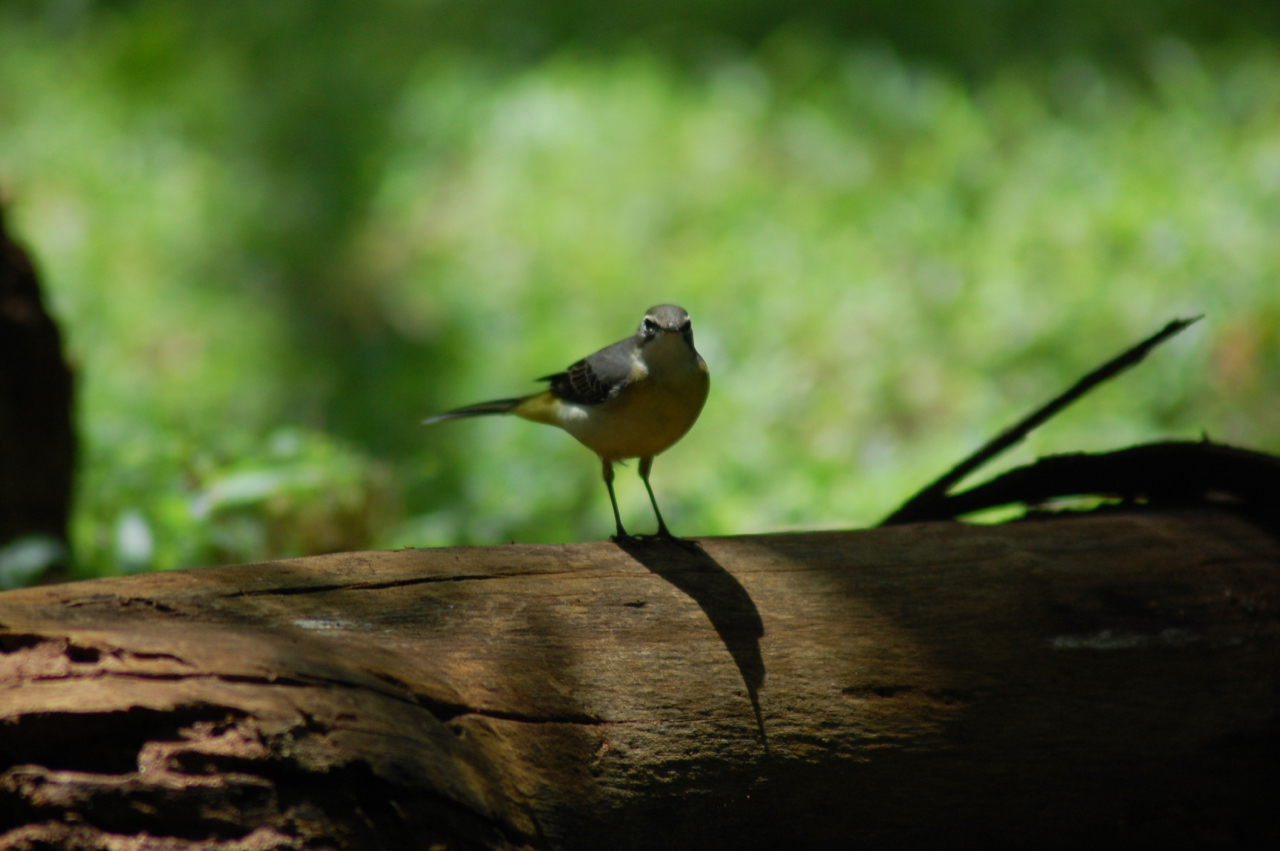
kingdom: Animalia
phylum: Chordata
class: Aves
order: Passeriformes
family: Motacillidae
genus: Motacilla
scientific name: Motacilla cinerea
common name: Grey wagtail
